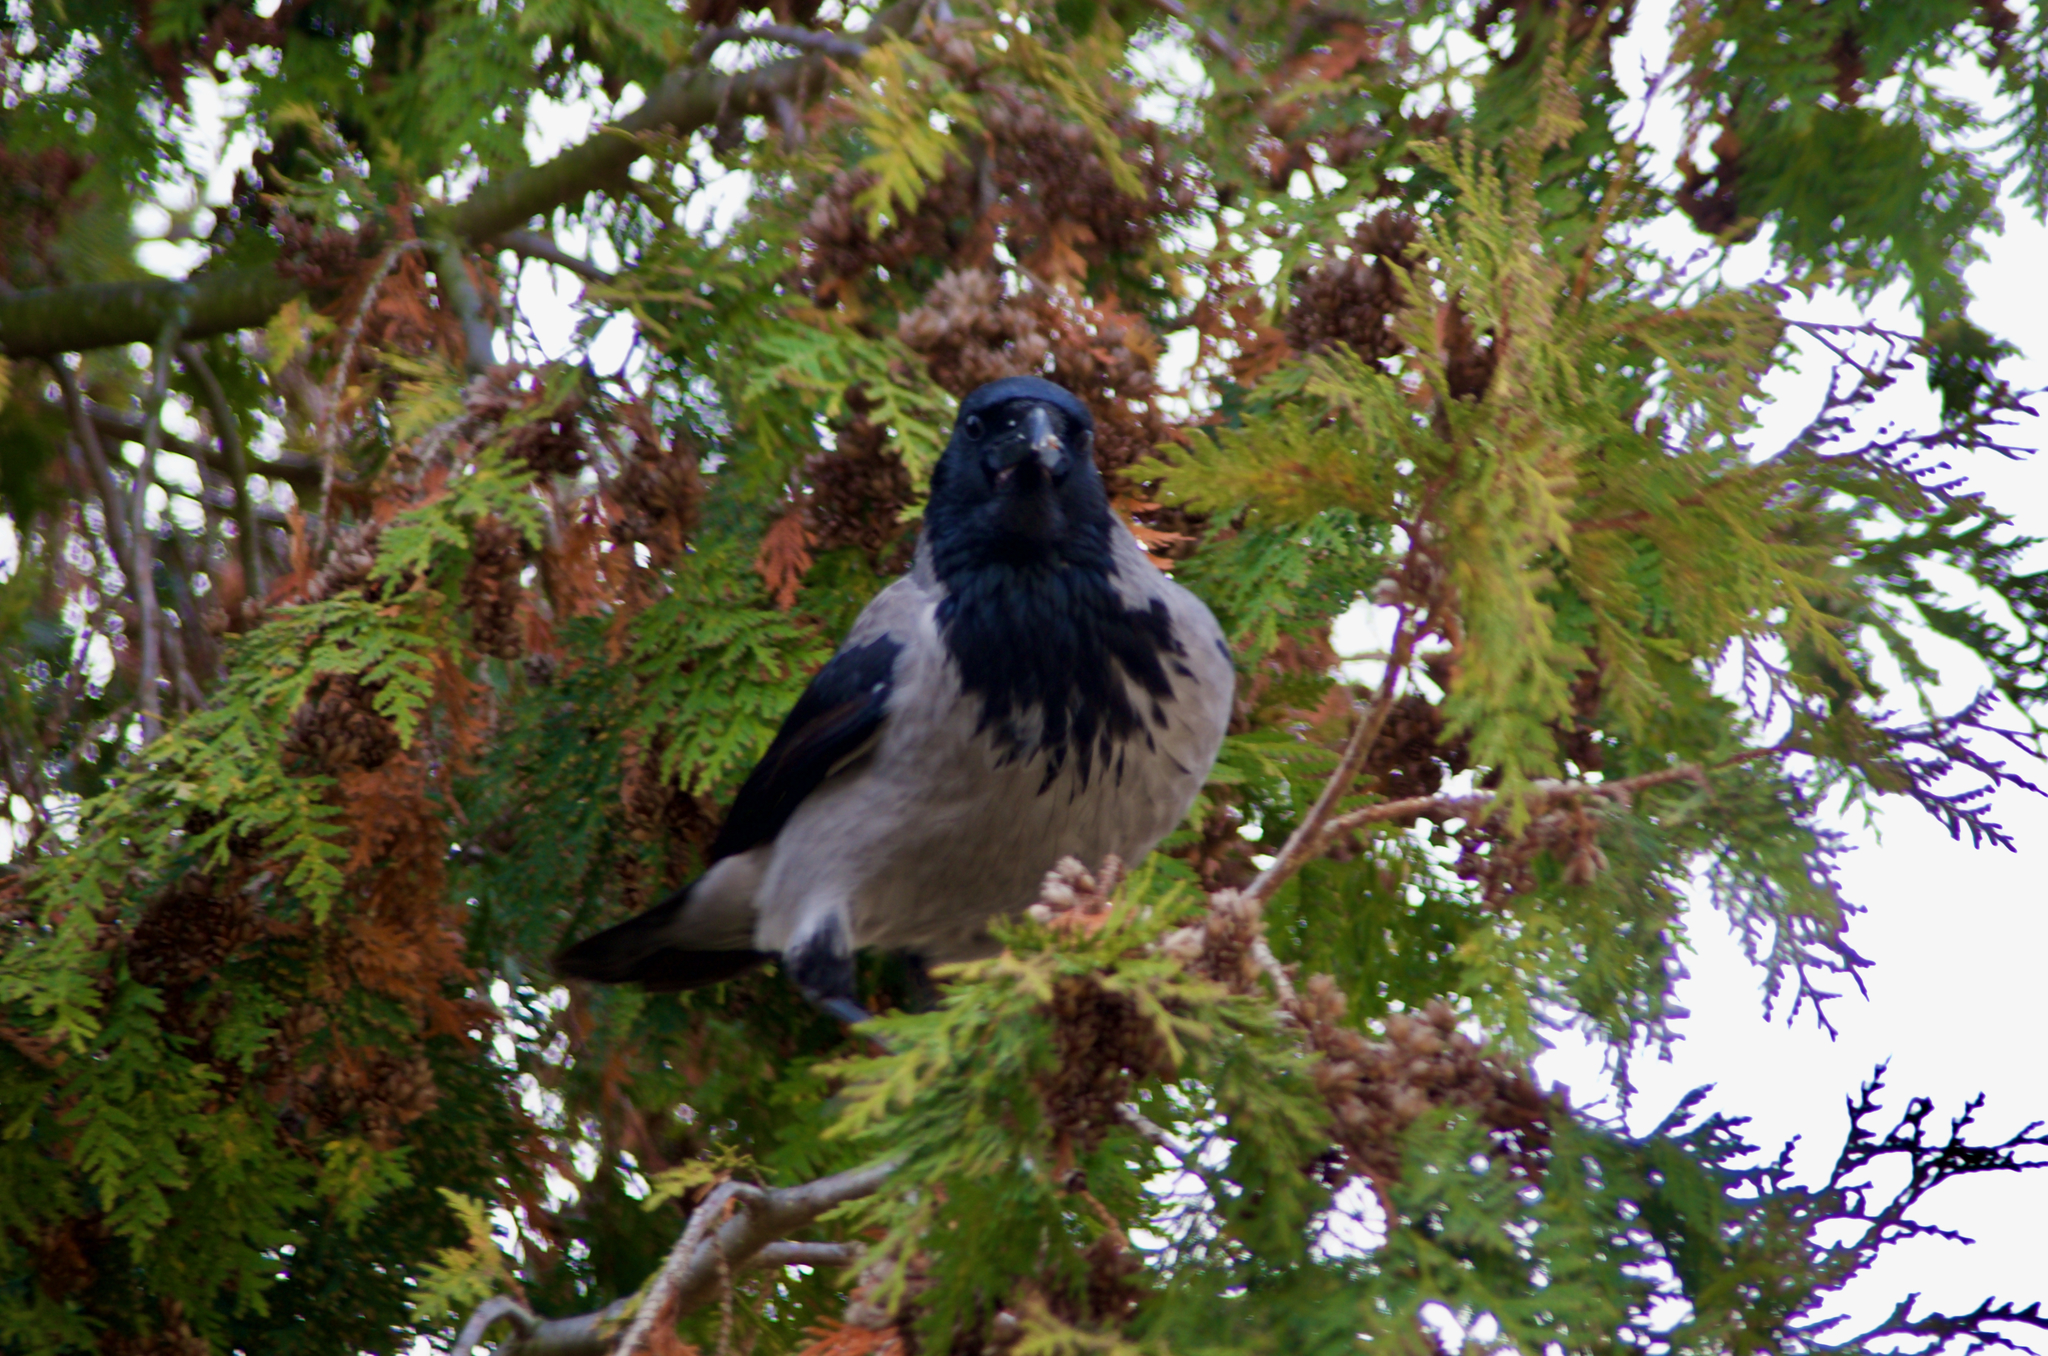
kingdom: Animalia
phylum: Chordata
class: Aves
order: Passeriformes
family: Corvidae
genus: Corvus
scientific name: Corvus cornix
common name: Hooded crow
